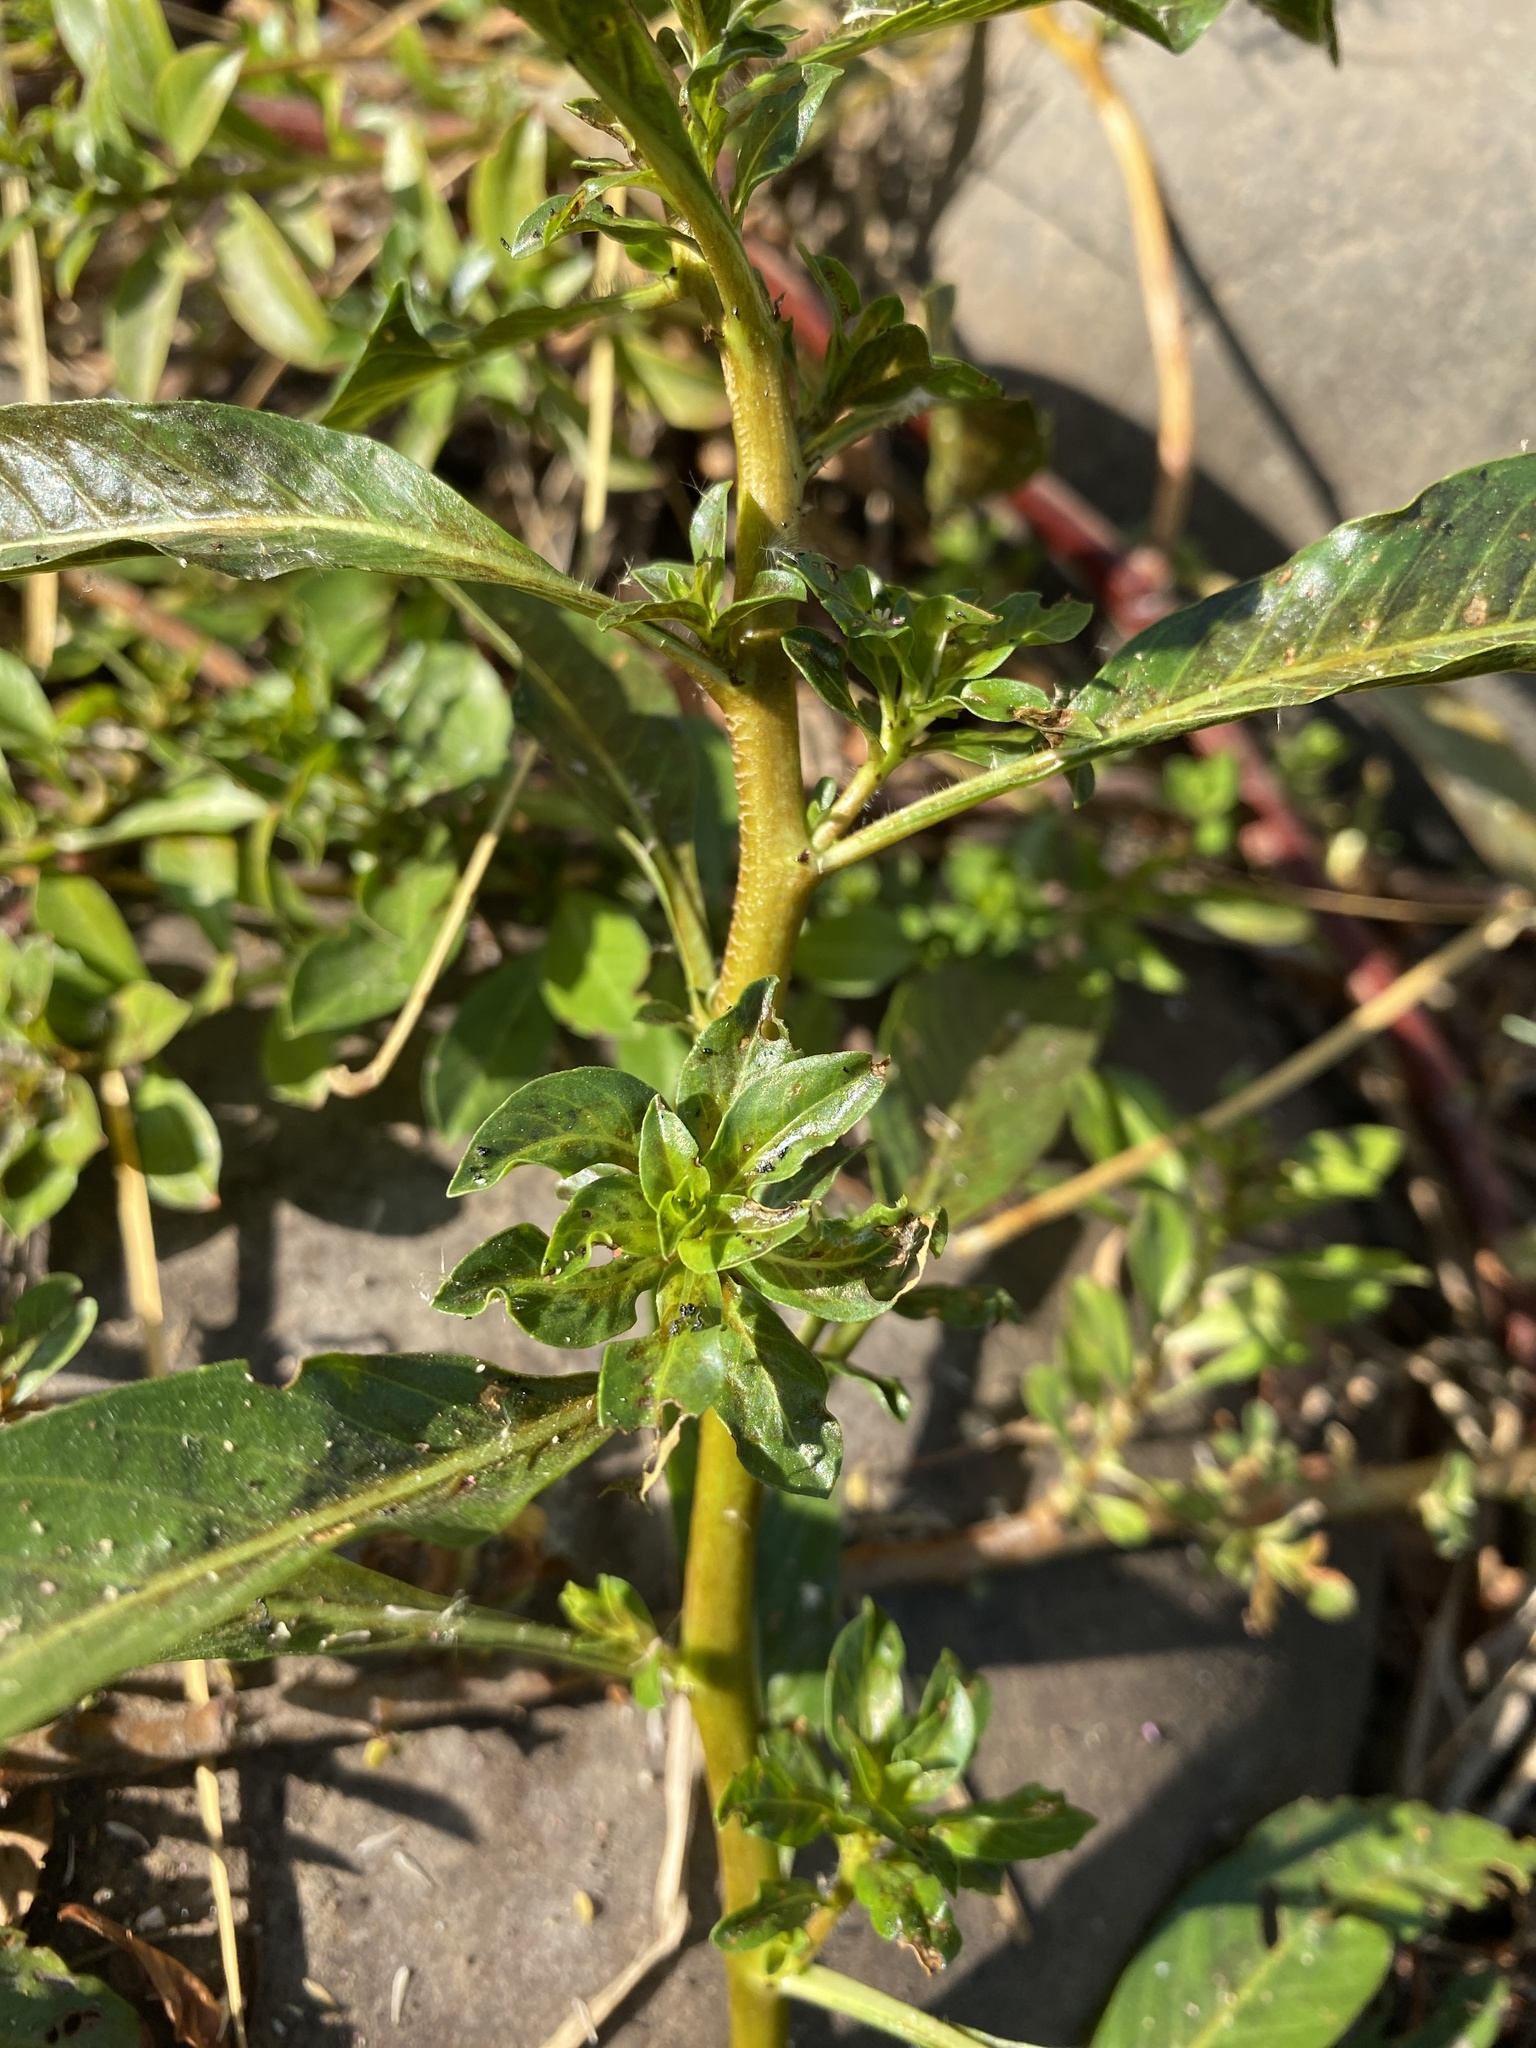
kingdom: Plantae
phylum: Tracheophyta
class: Magnoliopsida
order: Myrtales
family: Onagraceae
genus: Ludwigia
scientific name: Ludwigia peploides
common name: Floating primrose-willow
